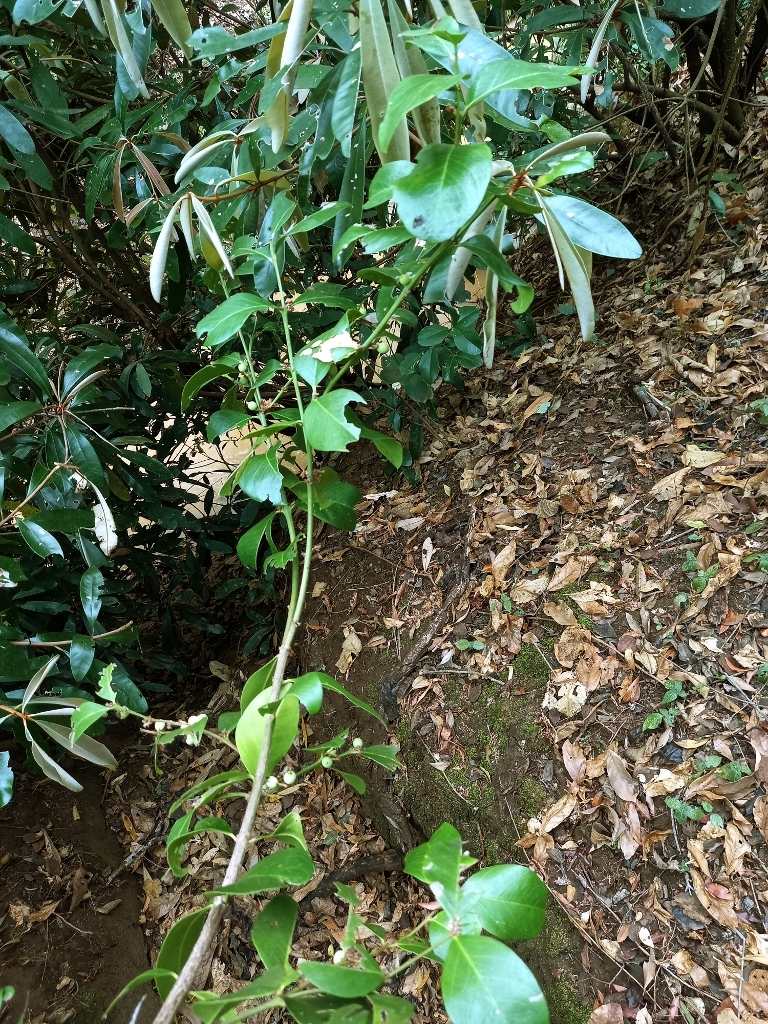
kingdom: Plantae
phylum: Tracheophyta
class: Magnoliopsida
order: Gentianales
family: Apocynaceae
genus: Acokanthera
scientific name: Acokanthera oppositifolia
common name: Bushman's-poison
